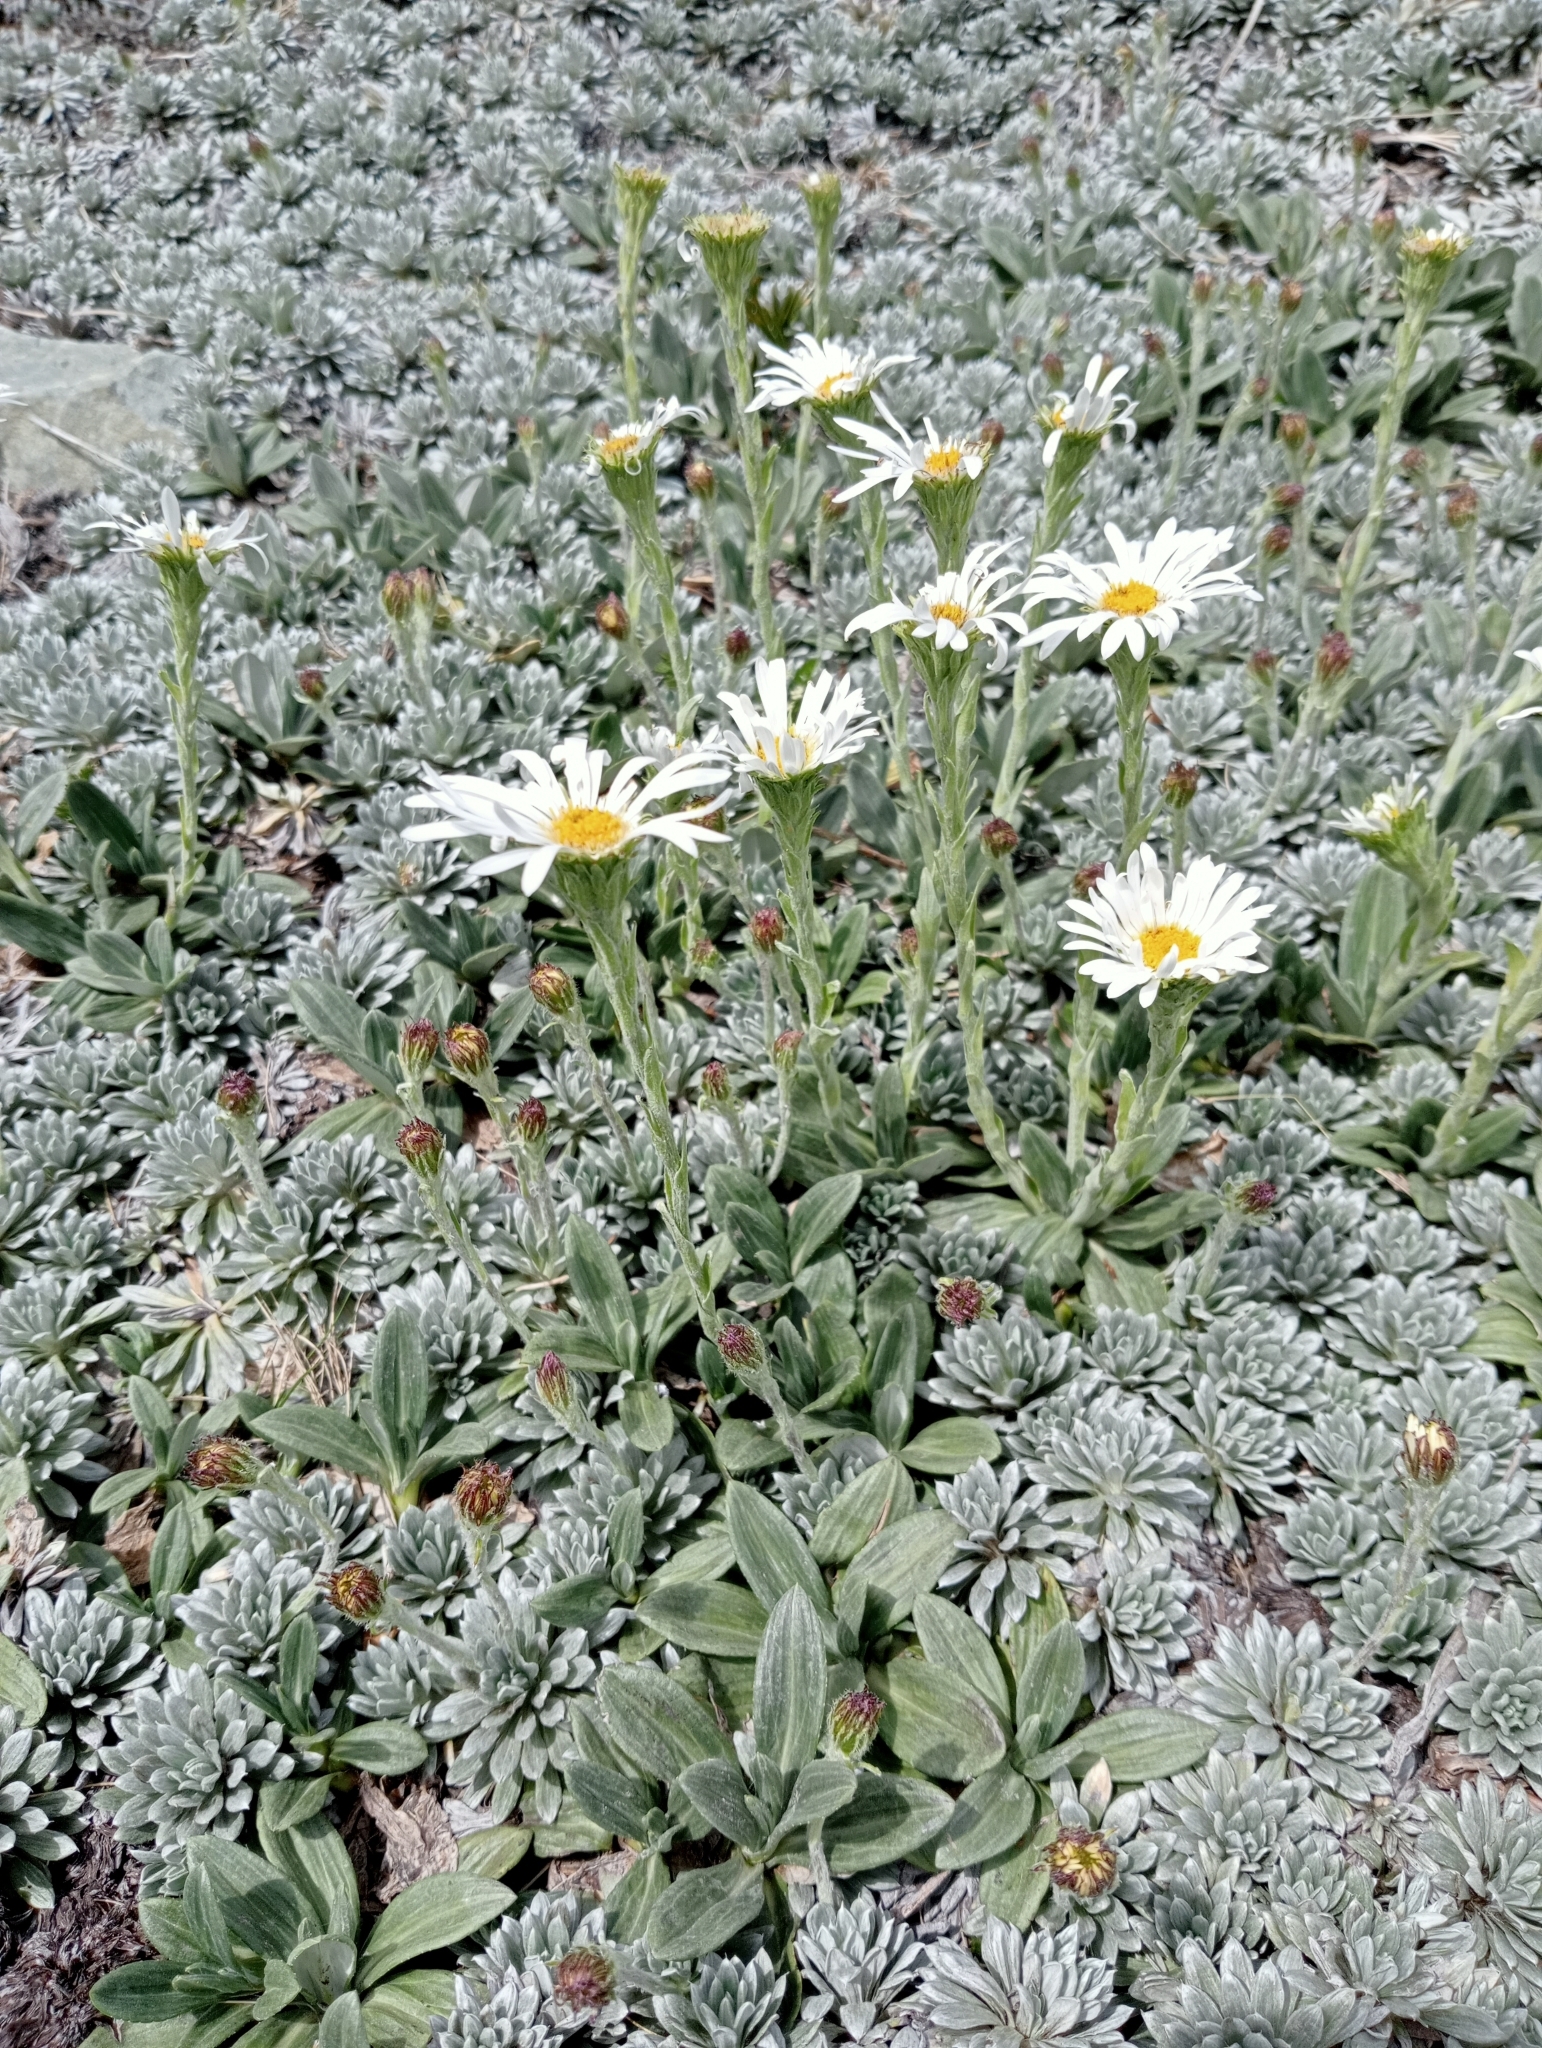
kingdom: Plantae
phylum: Tracheophyta
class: Magnoliopsida
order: Asterales
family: Asteraceae
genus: Celmisia
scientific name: Celmisia haastii
